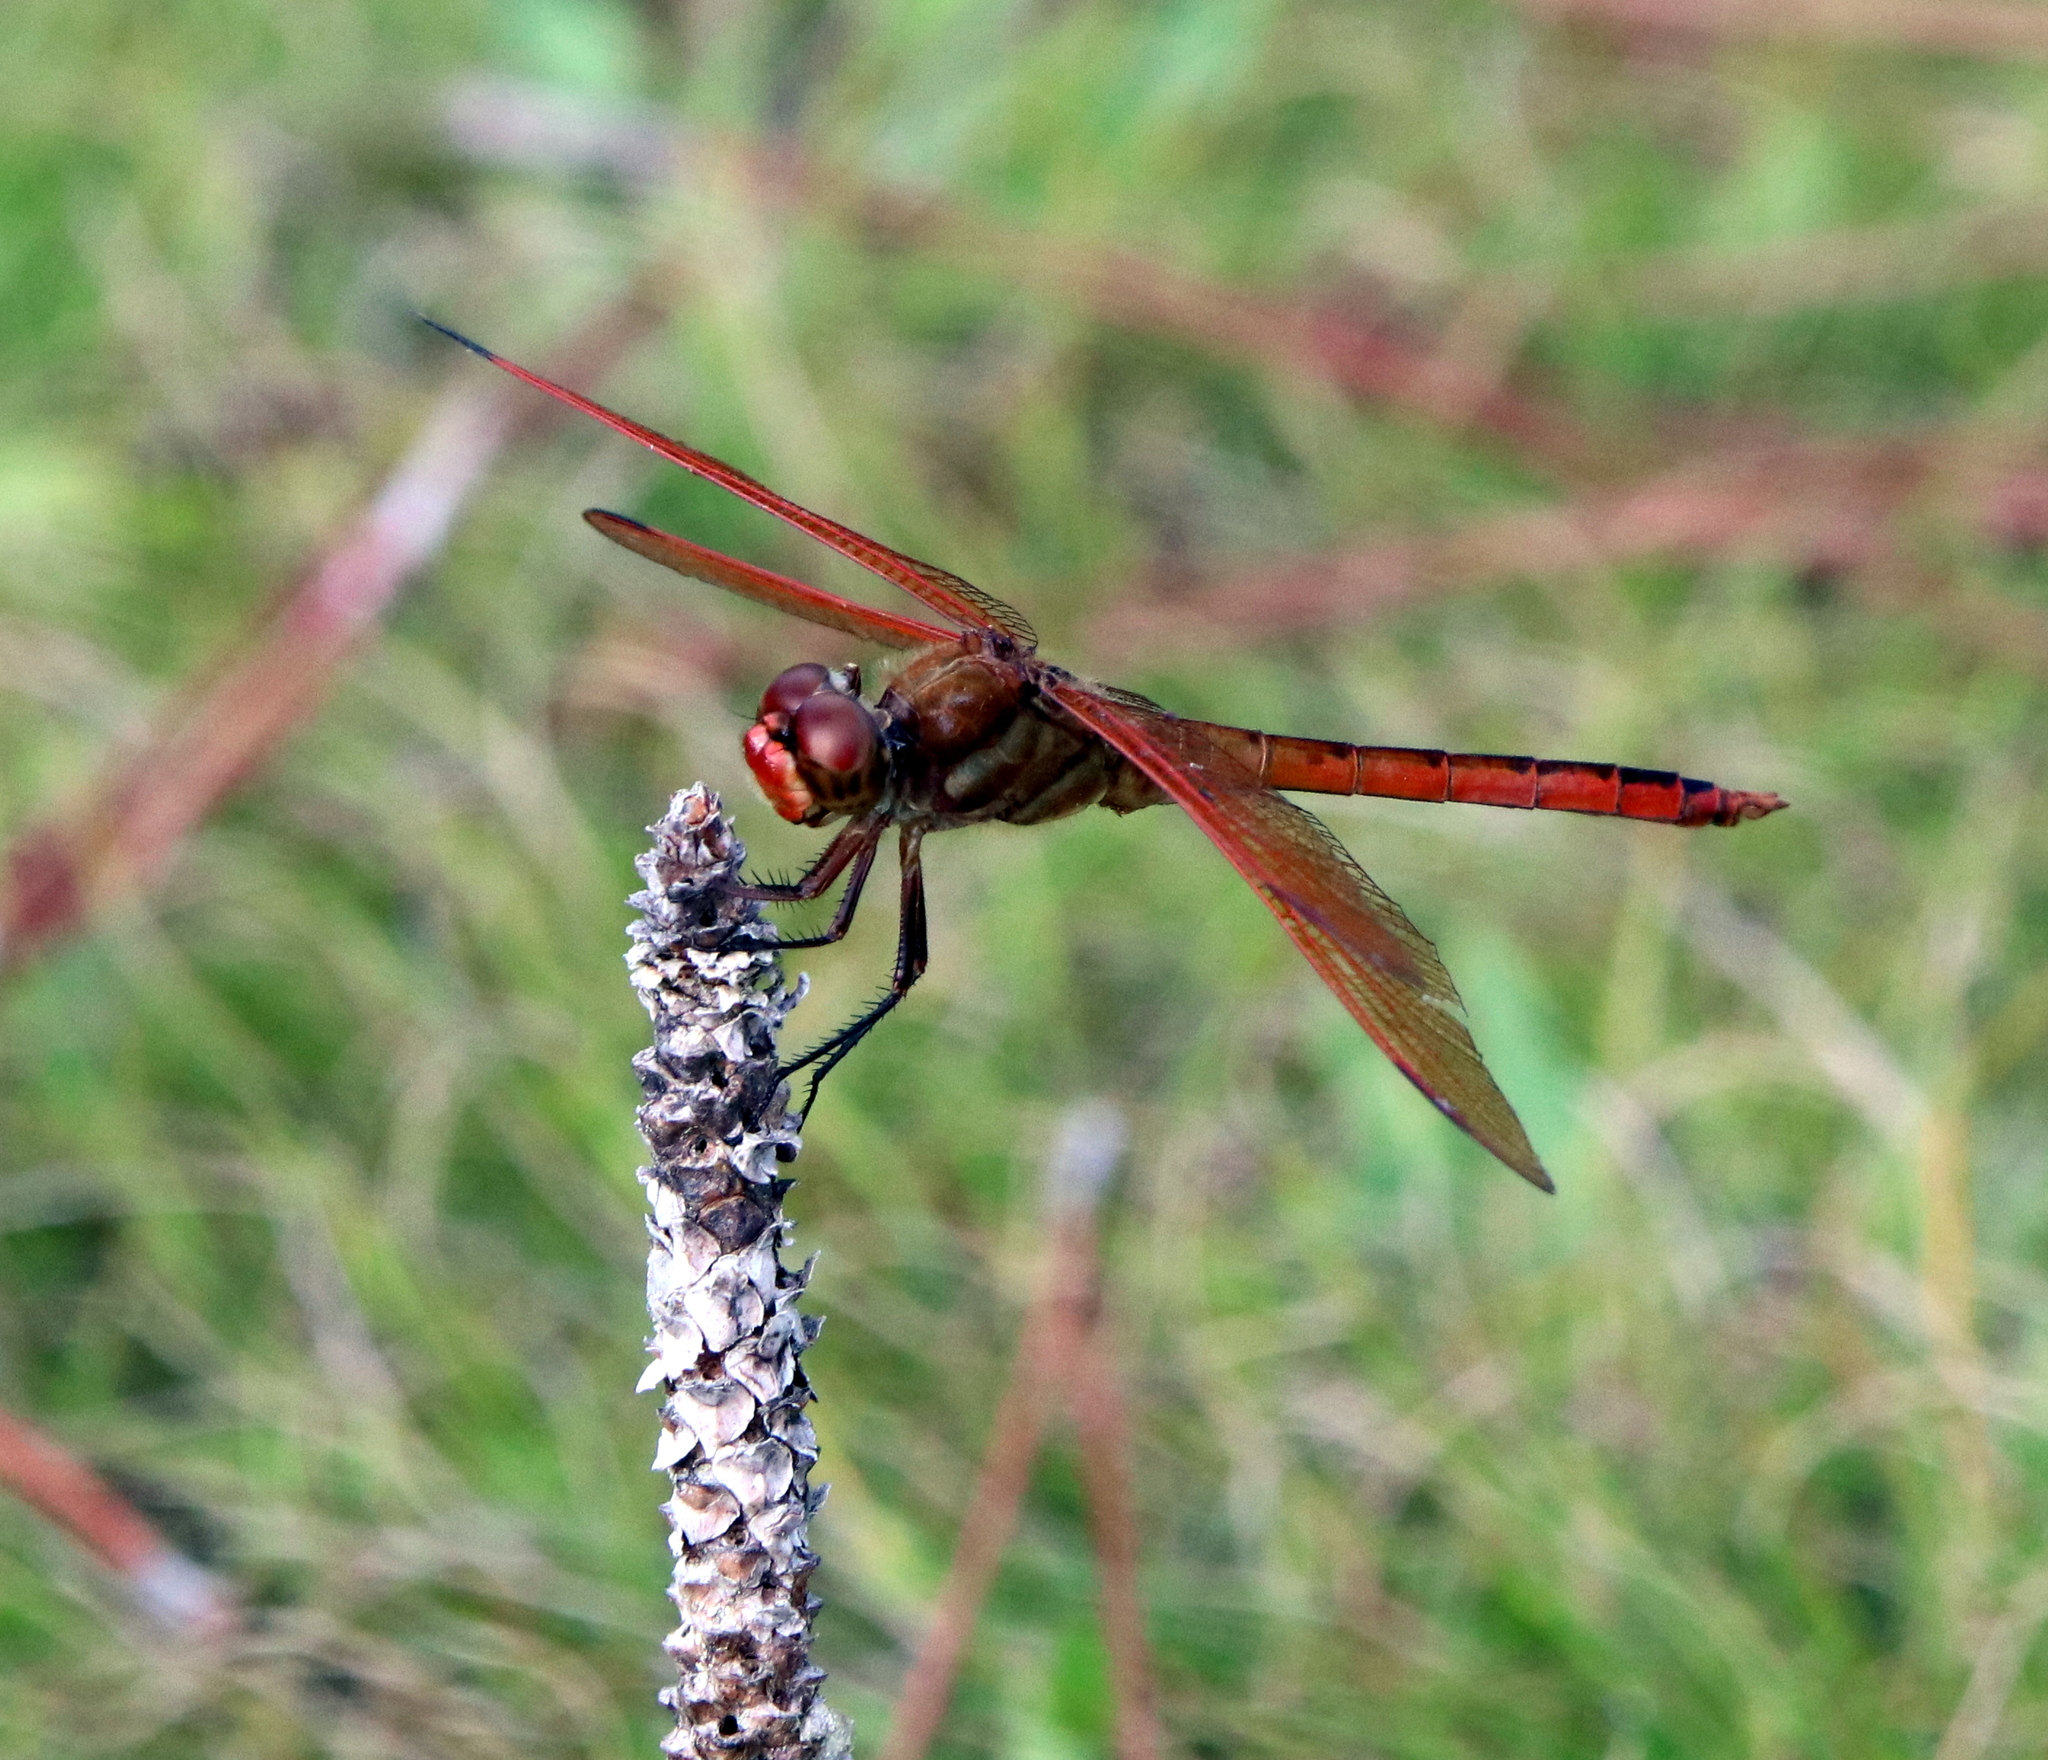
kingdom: Animalia
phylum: Arthropoda
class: Insecta
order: Odonata
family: Libellulidae
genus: Libellula
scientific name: Libellula auripennis
